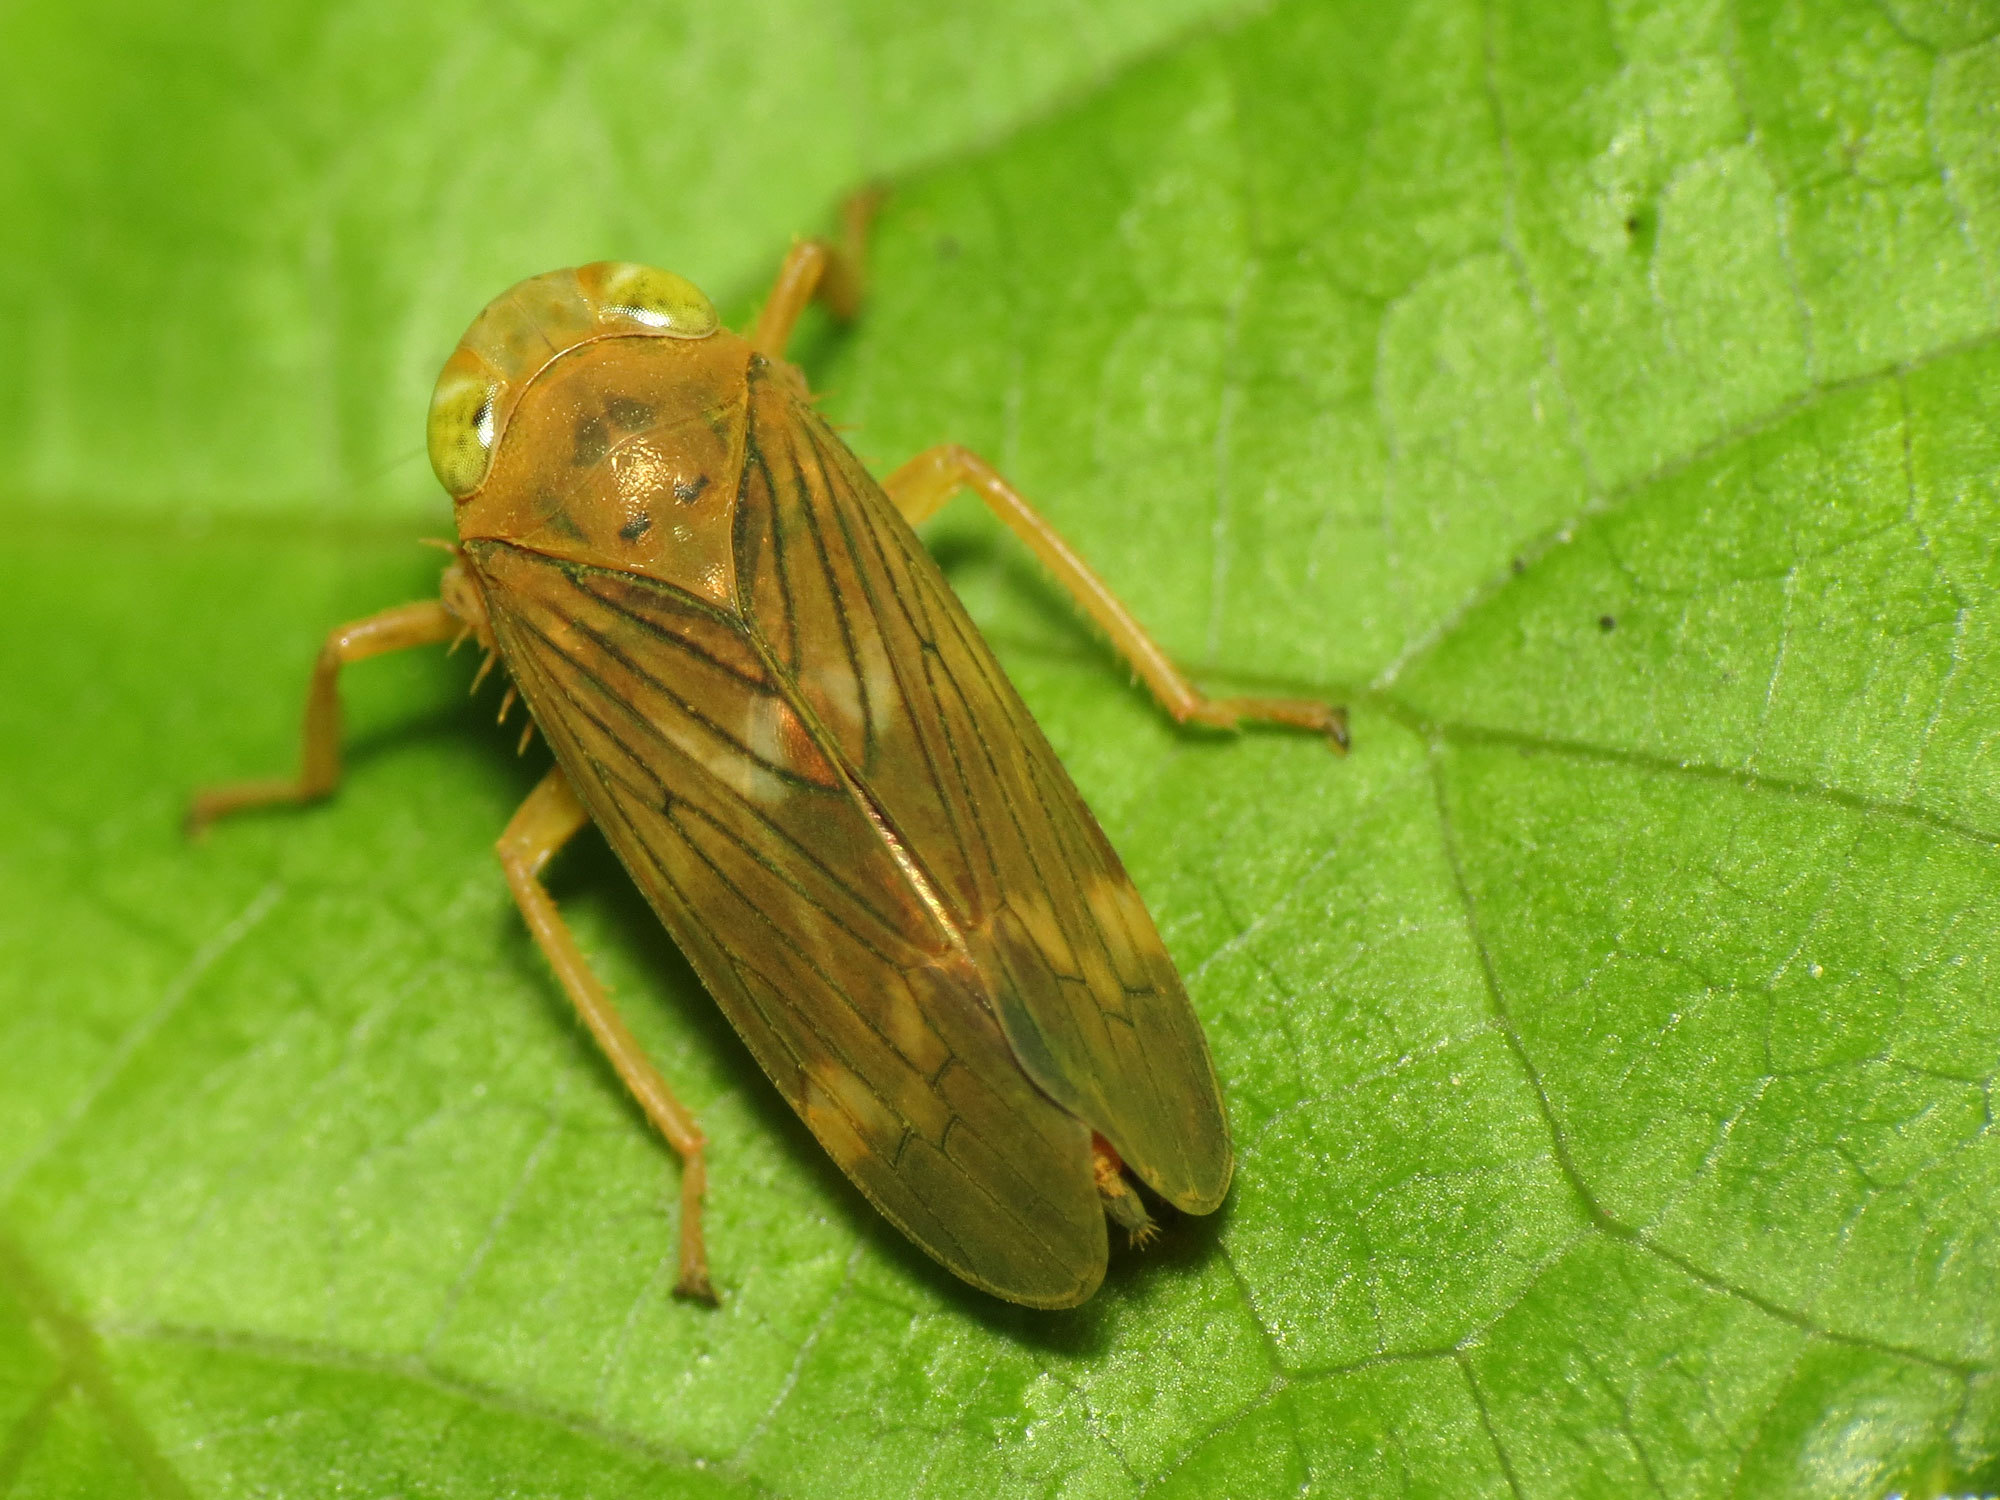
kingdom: Animalia
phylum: Arthropoda
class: Insecta
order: Hemiptera
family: Cicadellidae
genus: Jikradia
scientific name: Jikradia olitoria
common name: Coppery leafhopper
